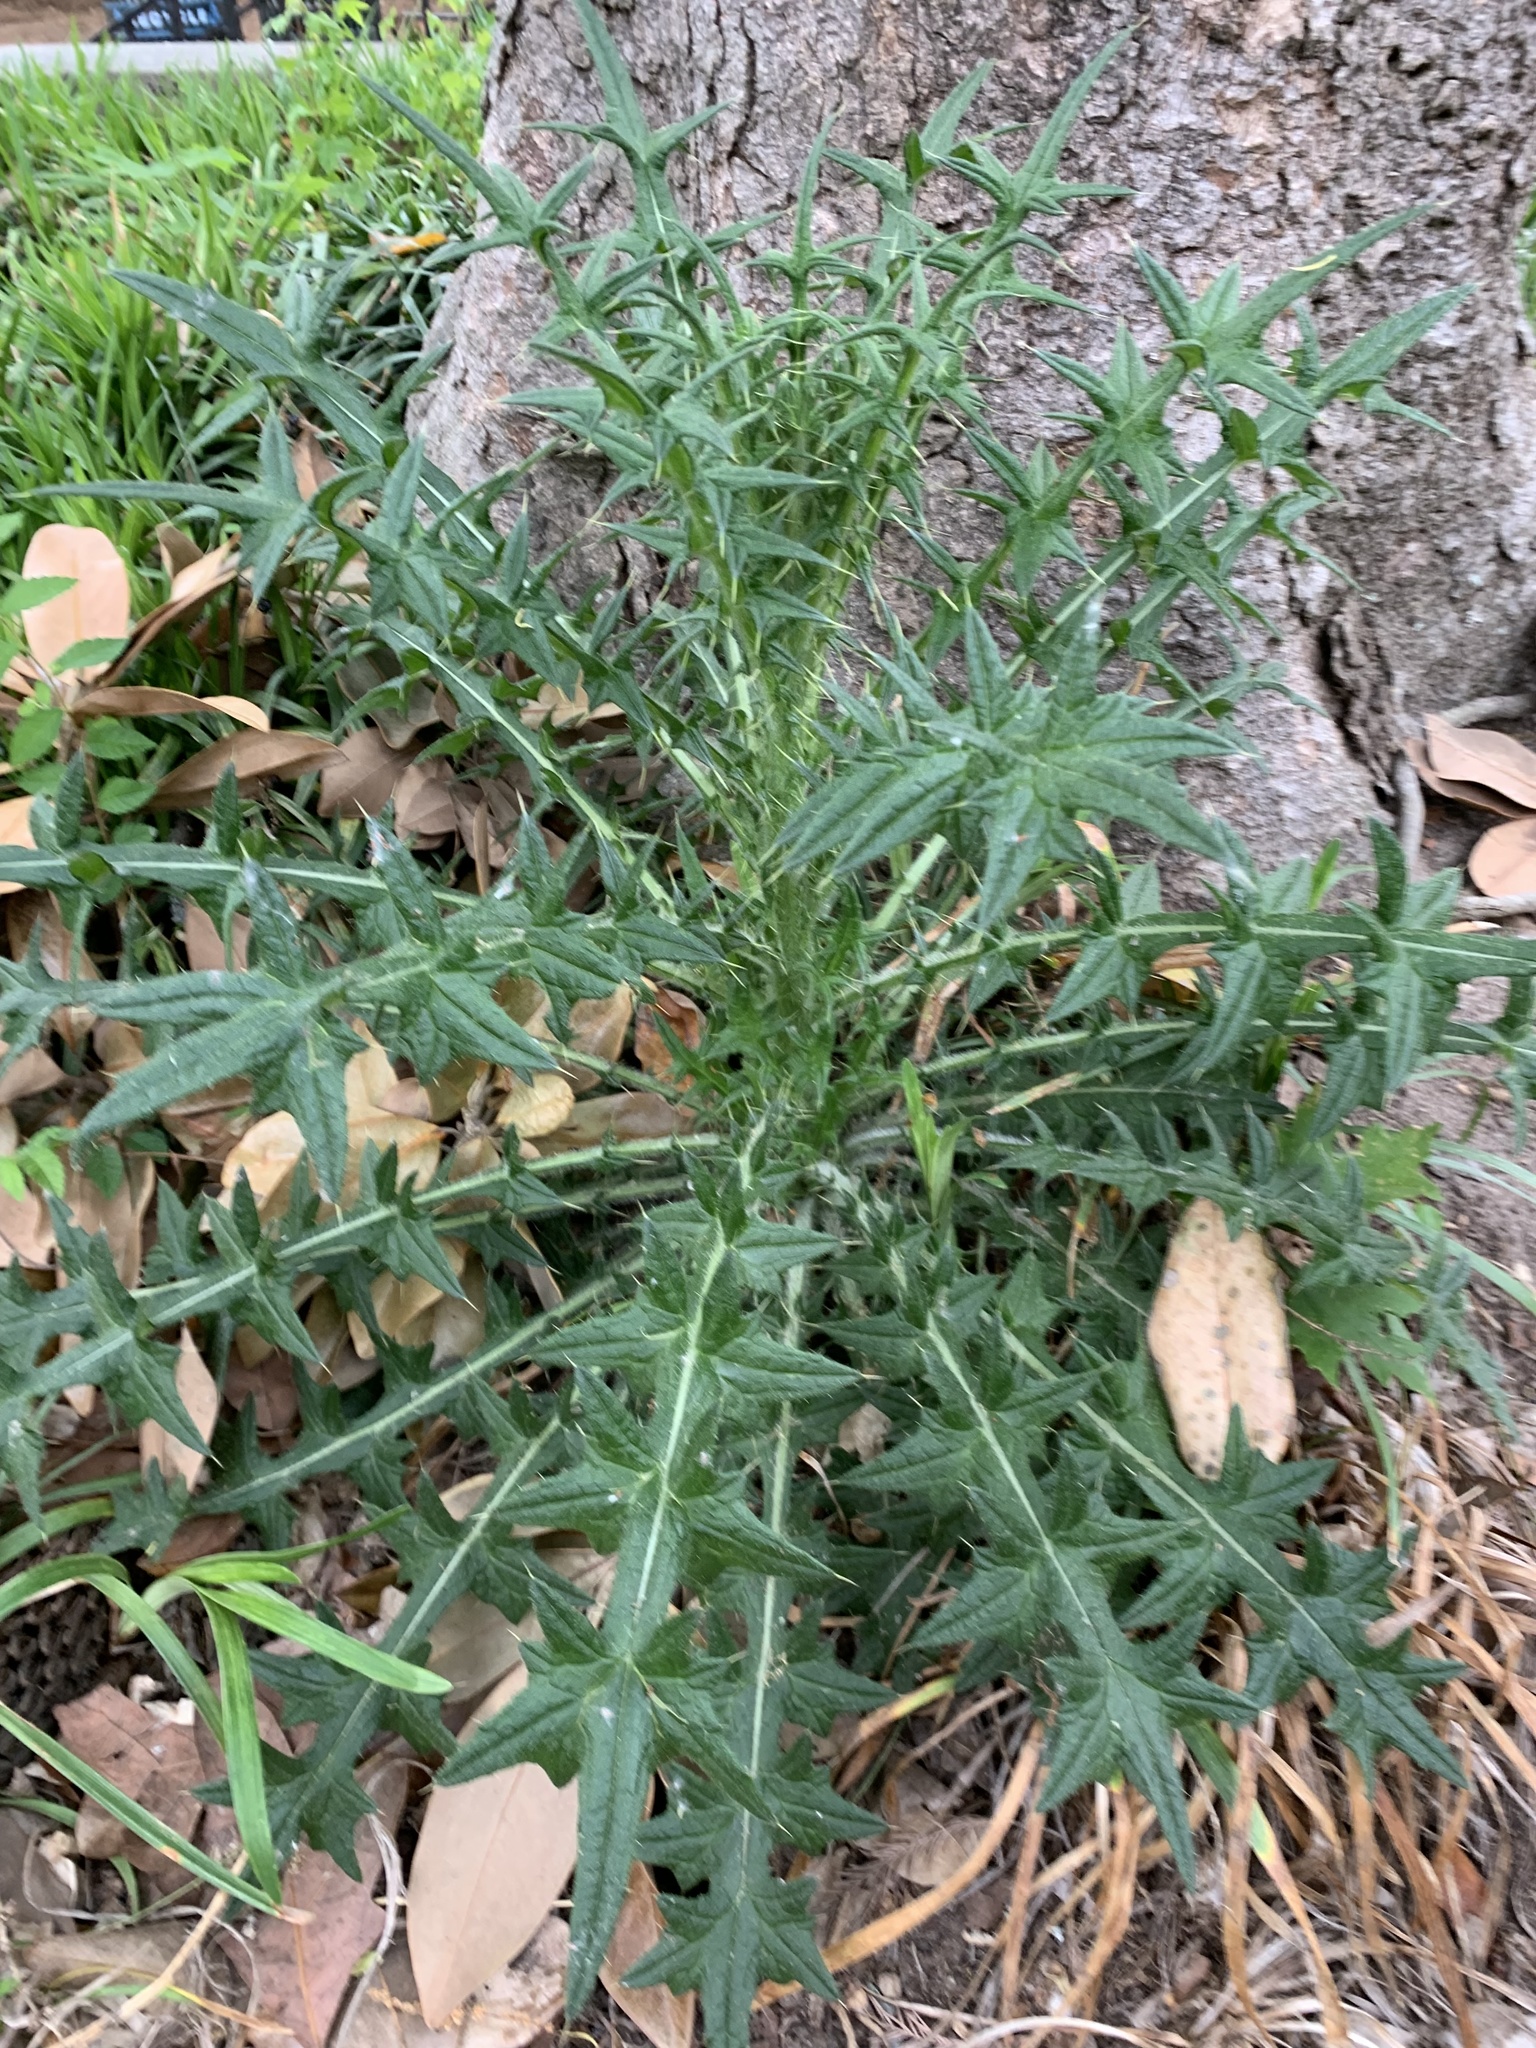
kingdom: Plantae
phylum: Tracheophyta
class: Magnoliopsida
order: Asterales
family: Asteraceae
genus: Cirsium
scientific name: Cirsium vulgare
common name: Bull thistle
